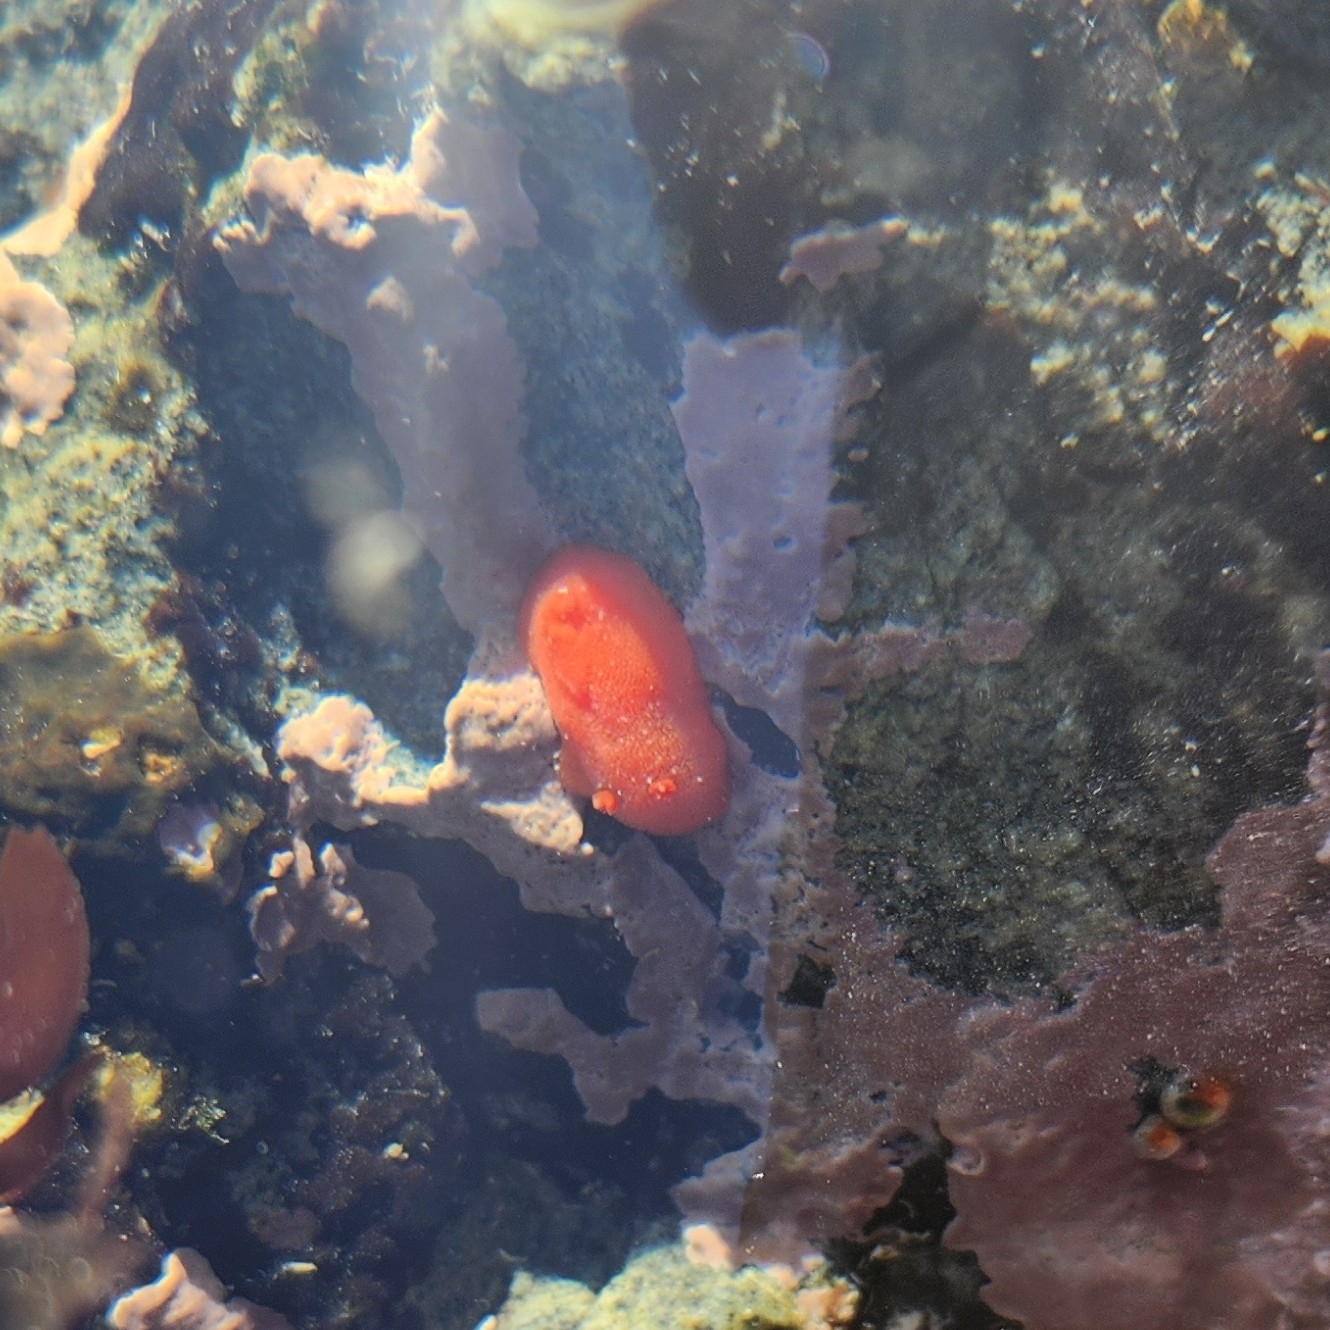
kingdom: Animalia
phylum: Mollusca
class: Gastropoda
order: Nudibranchia
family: Discodorididae
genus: Rostanga
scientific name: Rostanga pulchra
